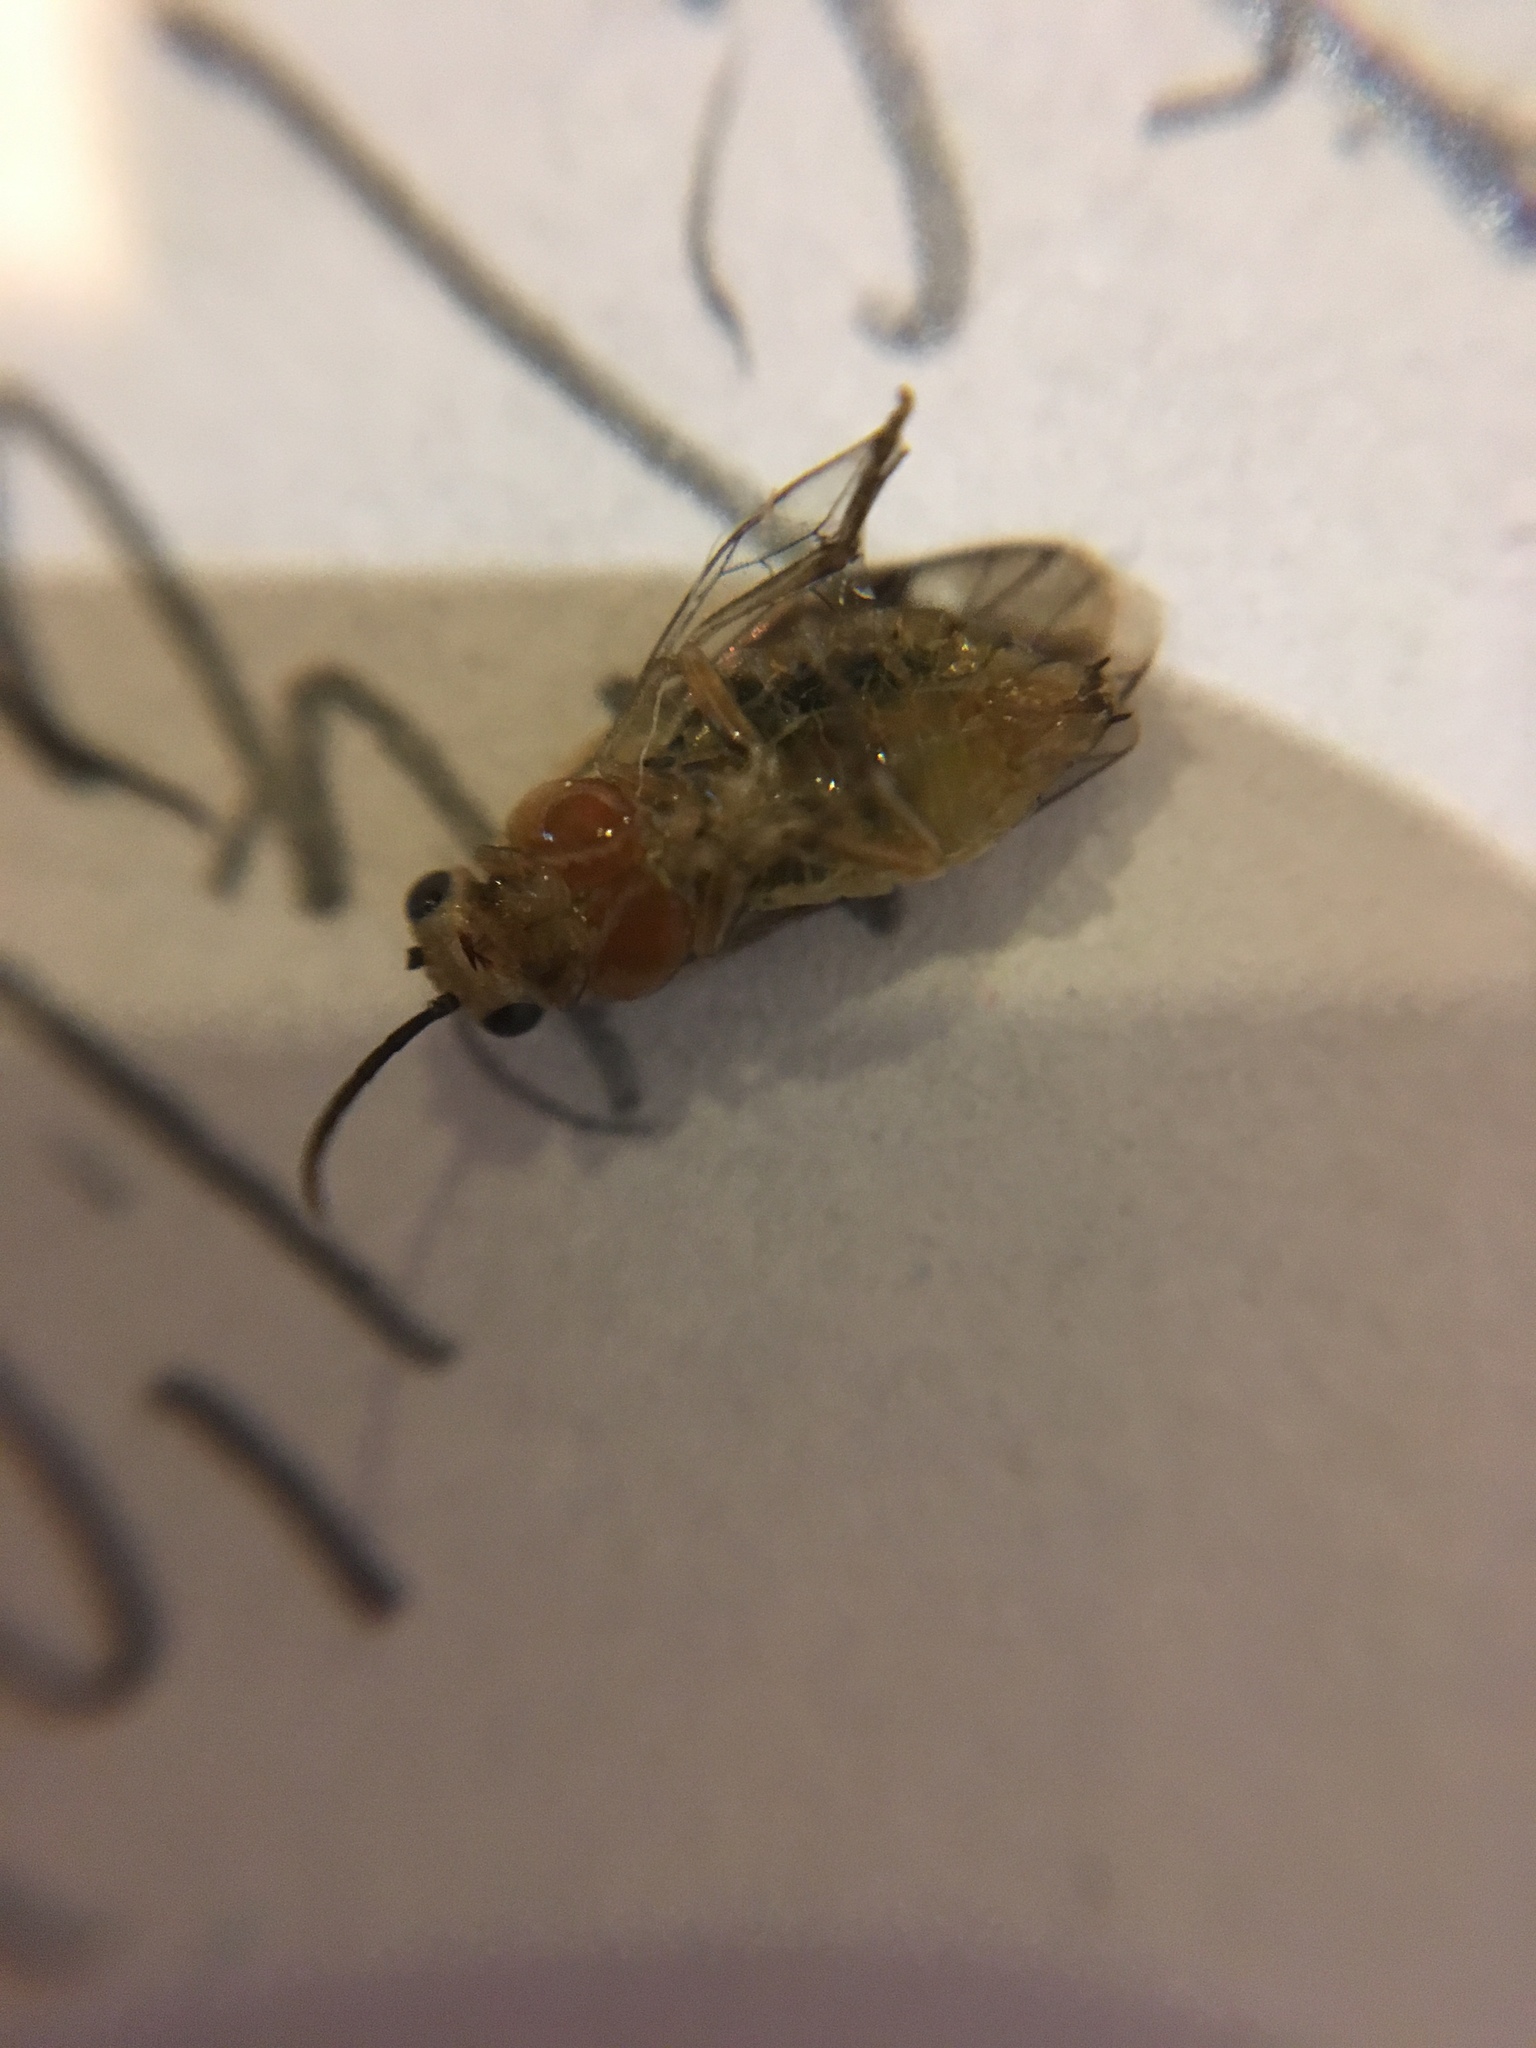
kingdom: Animalia
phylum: Arthropoda
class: Insecta
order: Hymenoptera
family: Tenthredinidae
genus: Pristiphora
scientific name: Pristiphora chlorea
